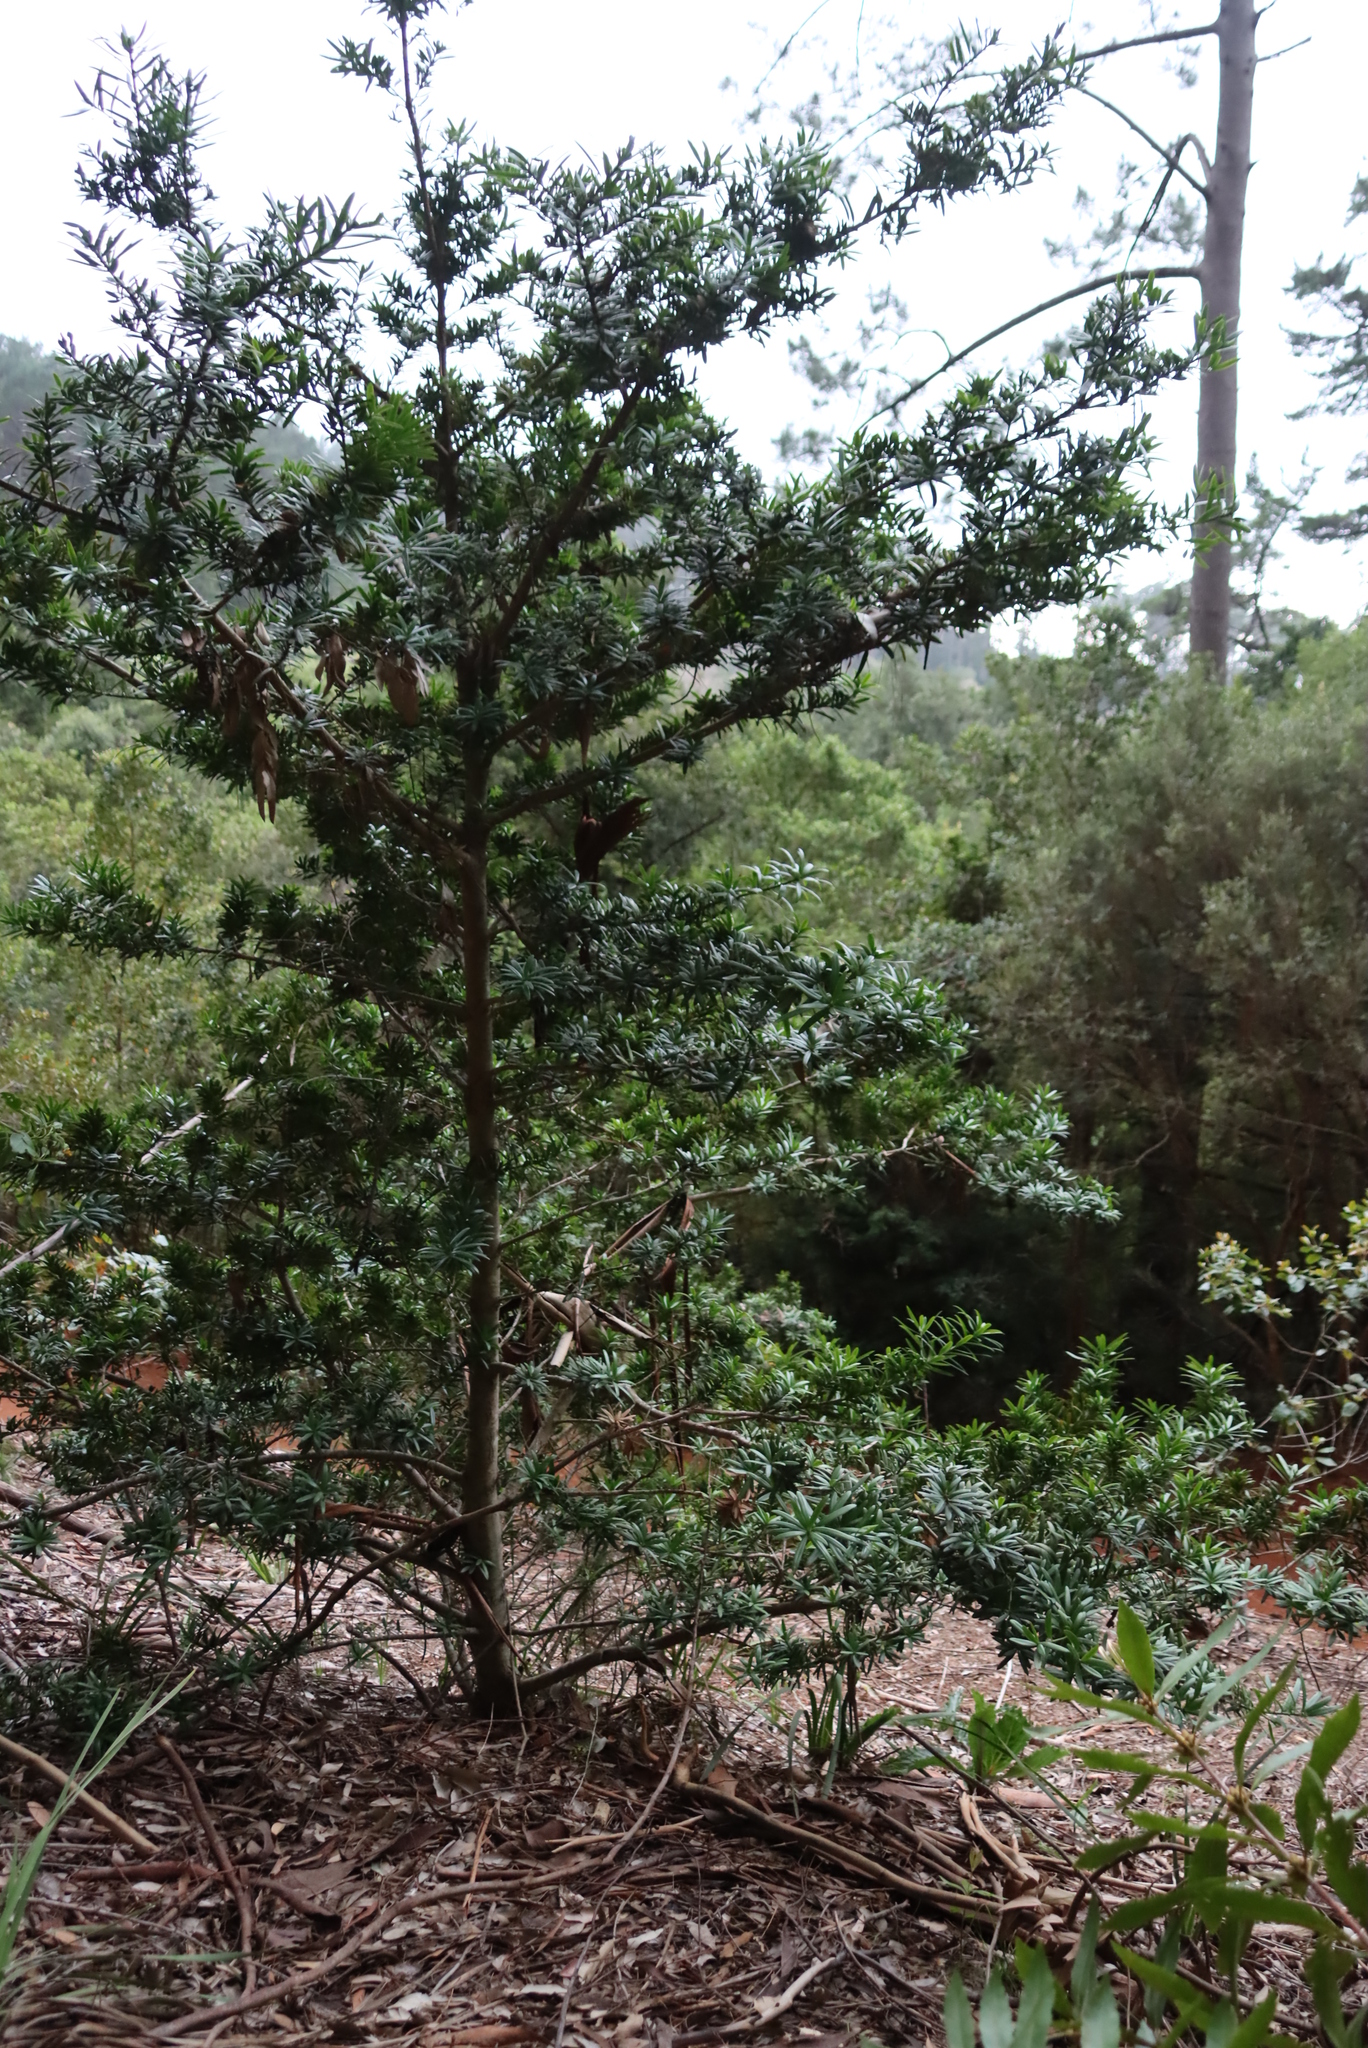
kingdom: Plantae
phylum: Tracheophyta
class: Pinopsida
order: Pinales
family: Podocarpaceae
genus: Podocarpus
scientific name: Podocarpus latifolius
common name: True yellowwood
